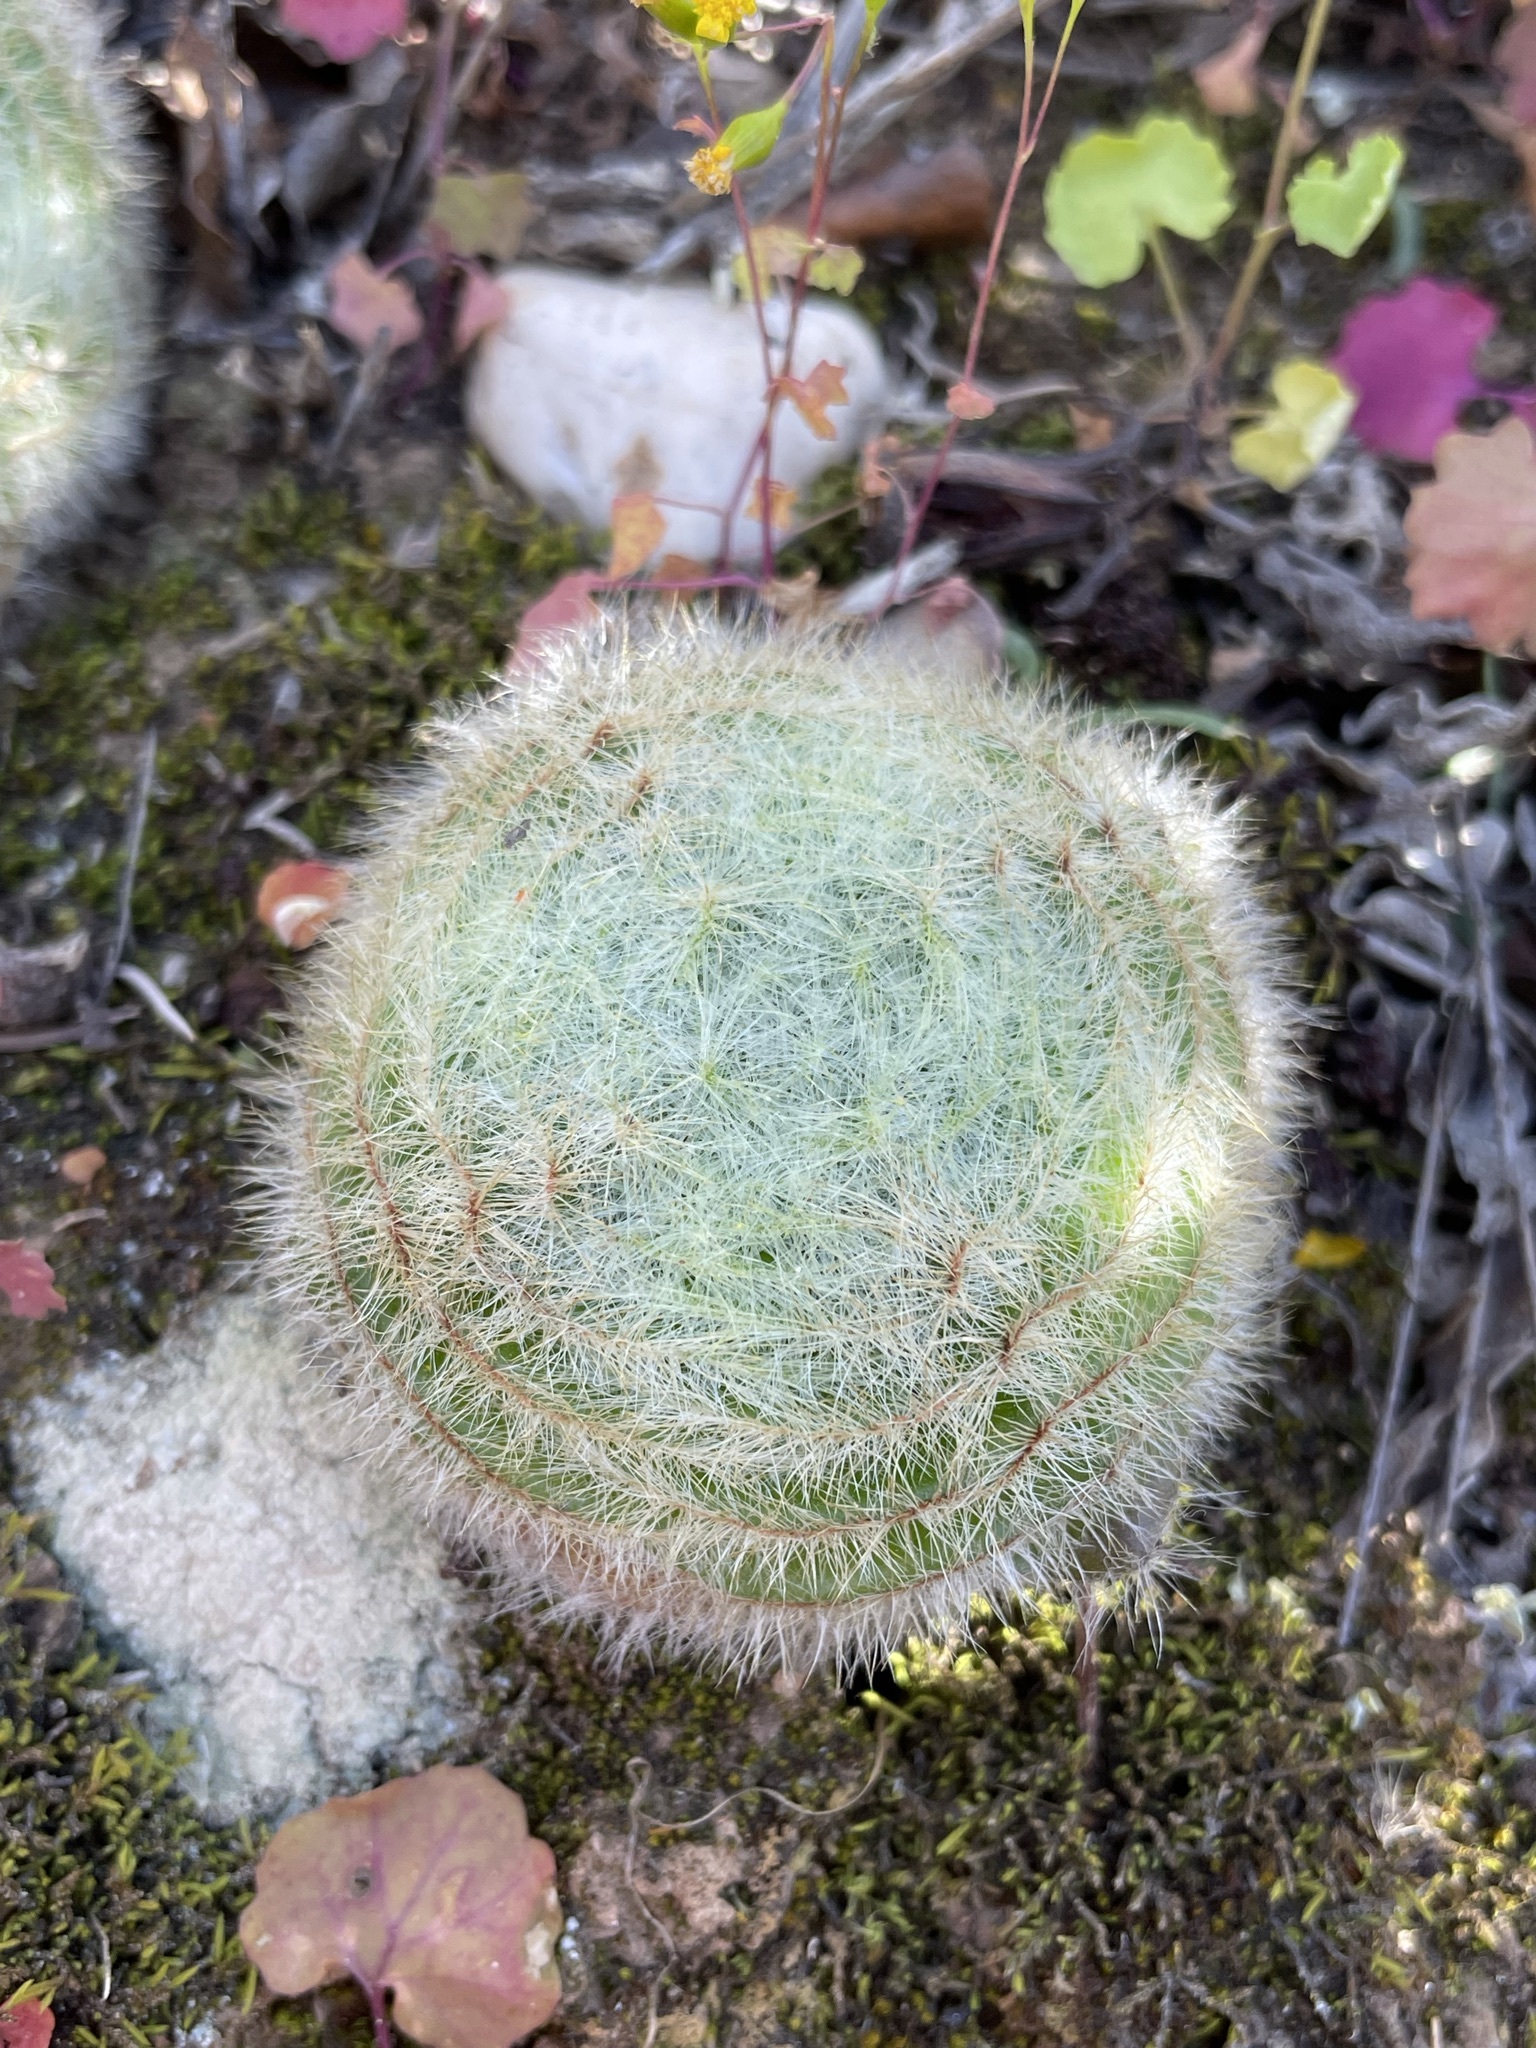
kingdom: Plantae
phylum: Tracheophyta
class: Magnoliopsida
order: Saxifragales
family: Crassulaceae
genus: Crassula
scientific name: Crassula barbata
